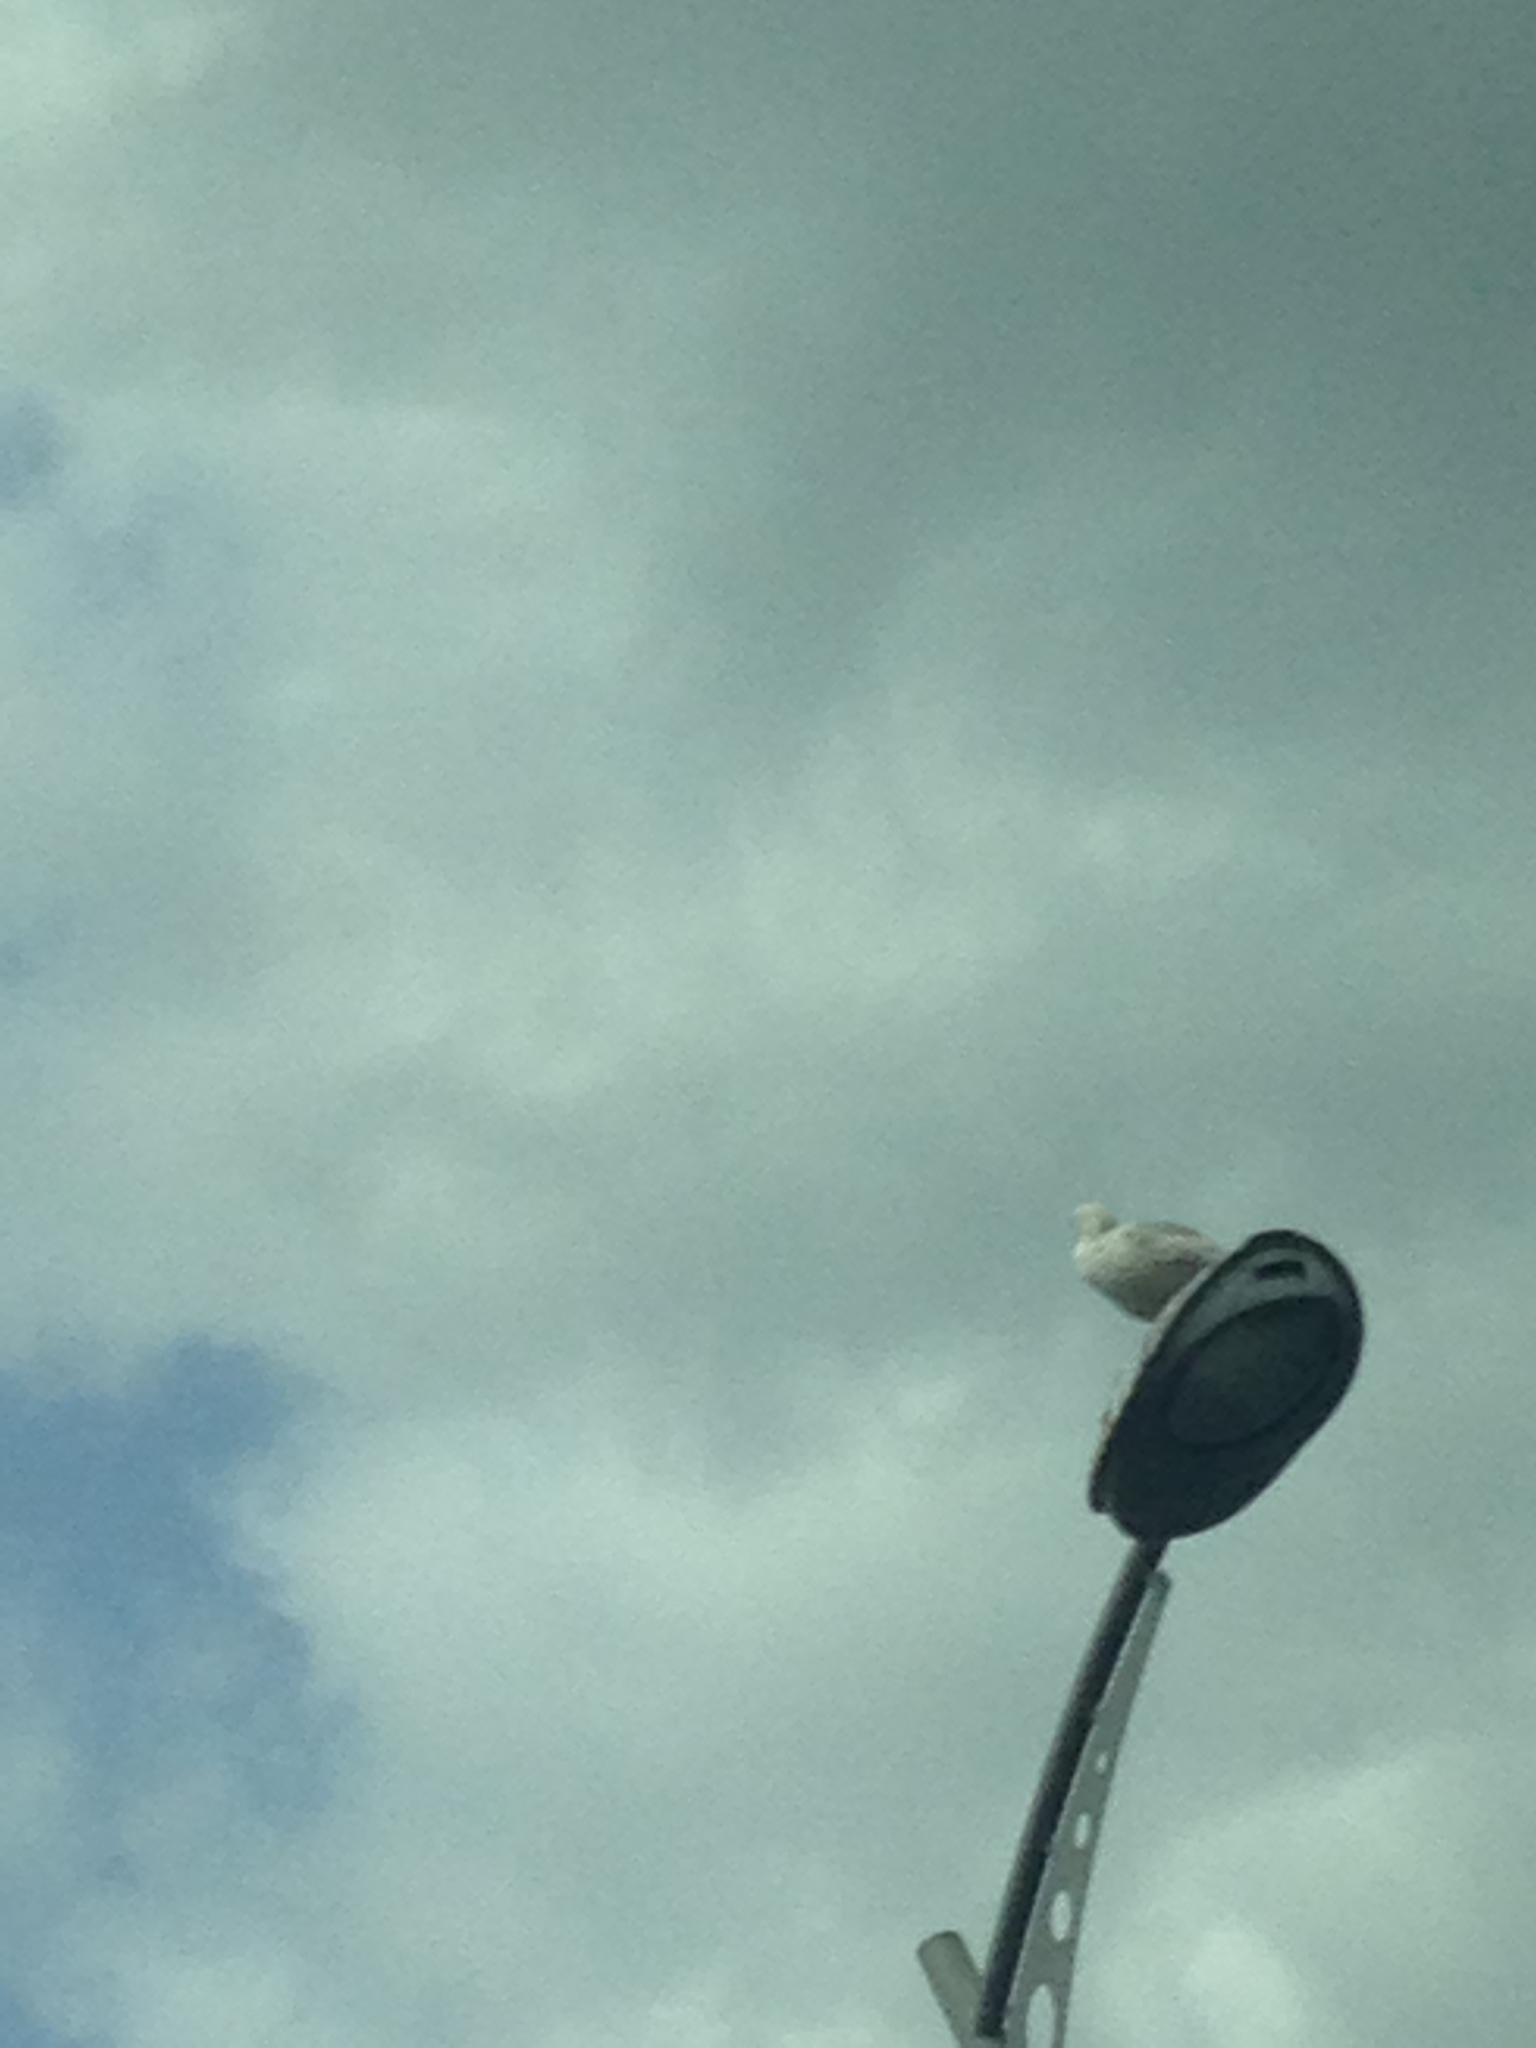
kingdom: Animalia
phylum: Chordata
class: Aves
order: Charadriiformes
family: Laridae
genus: Larus
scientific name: Larus argentatus
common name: Herring gull
